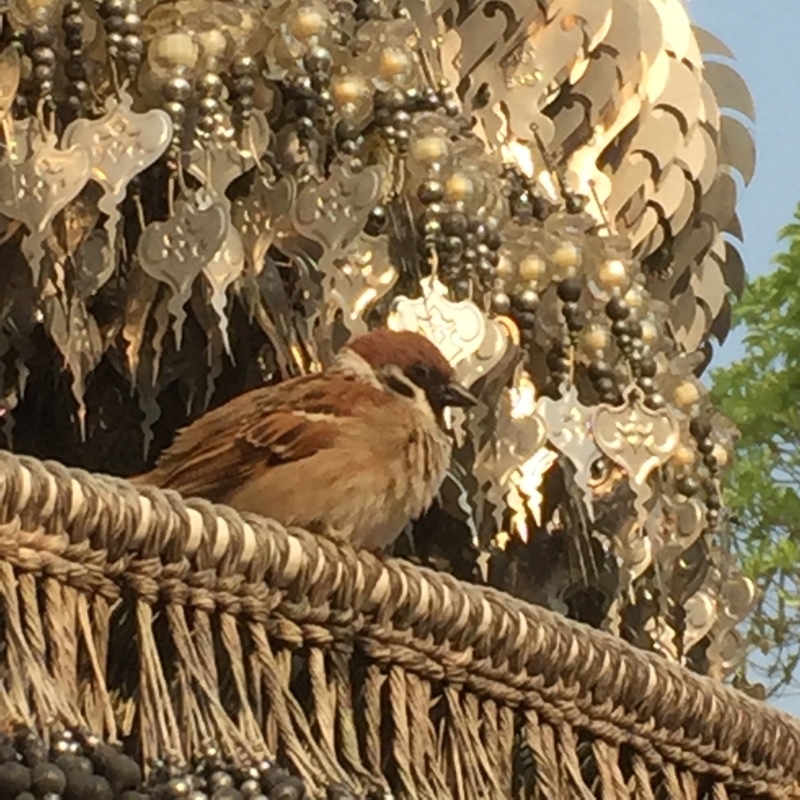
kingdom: Animalia
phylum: Chordata
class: Aves
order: Passeriformes
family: Passeridae
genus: Passer
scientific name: Passer montanus
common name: Eurasian tree sparrow
